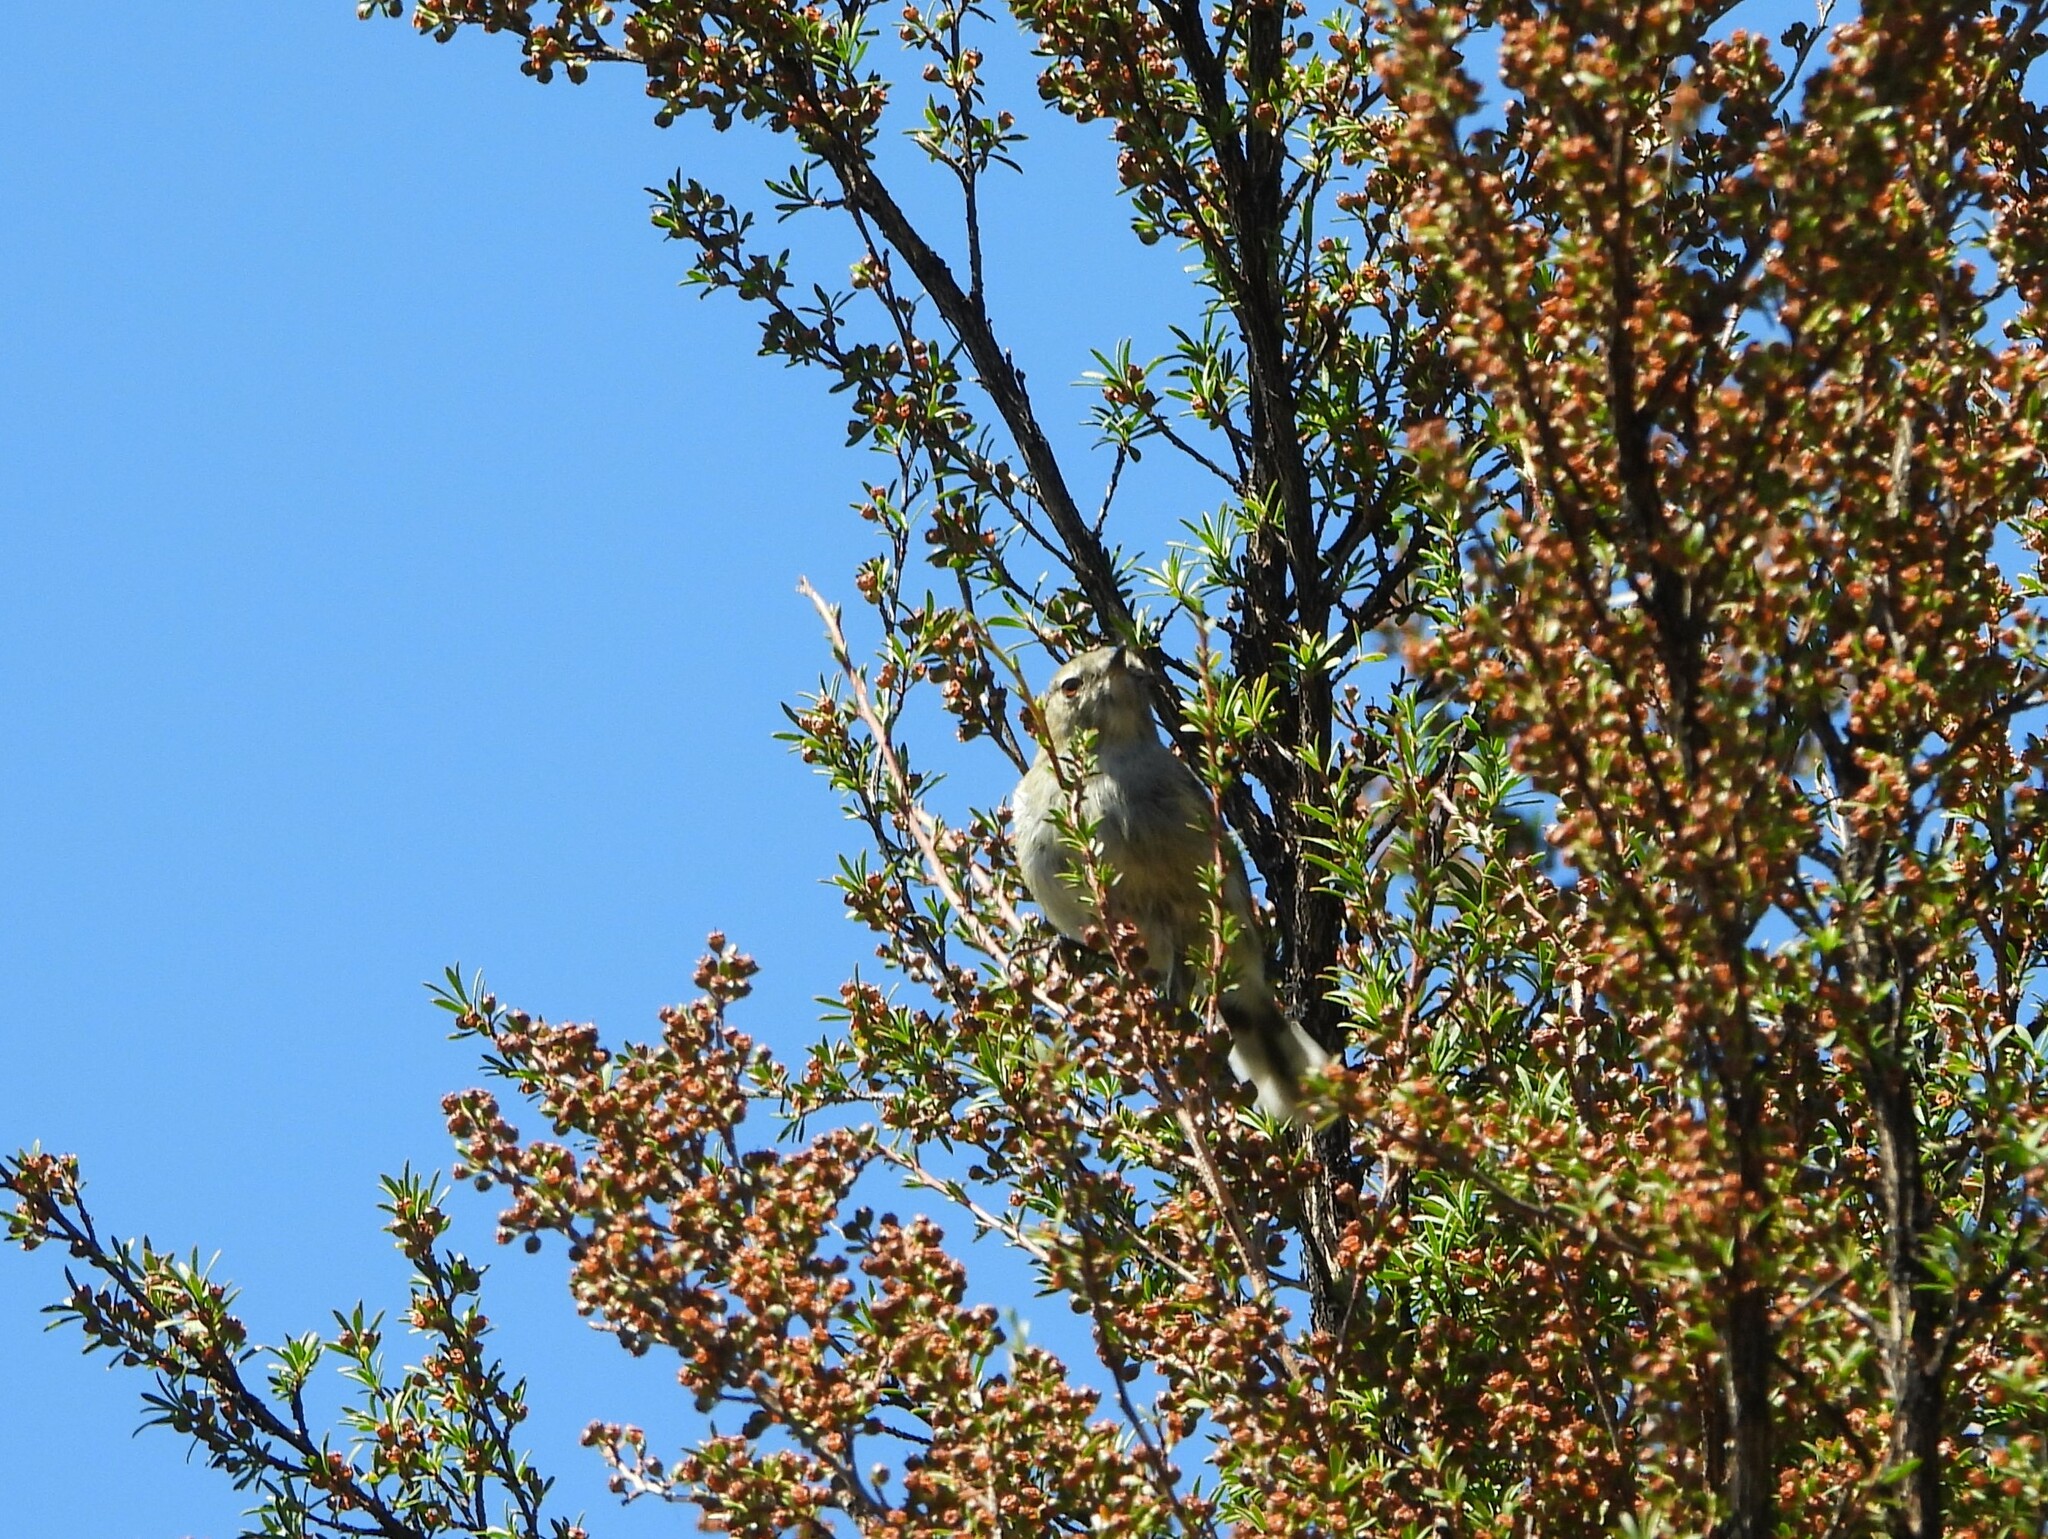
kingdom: Animalia
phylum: Chordata
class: Aves
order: Passeriformes
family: Acanthizidae
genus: Gerygone
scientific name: Gerygone igata
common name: Grey gerygone
